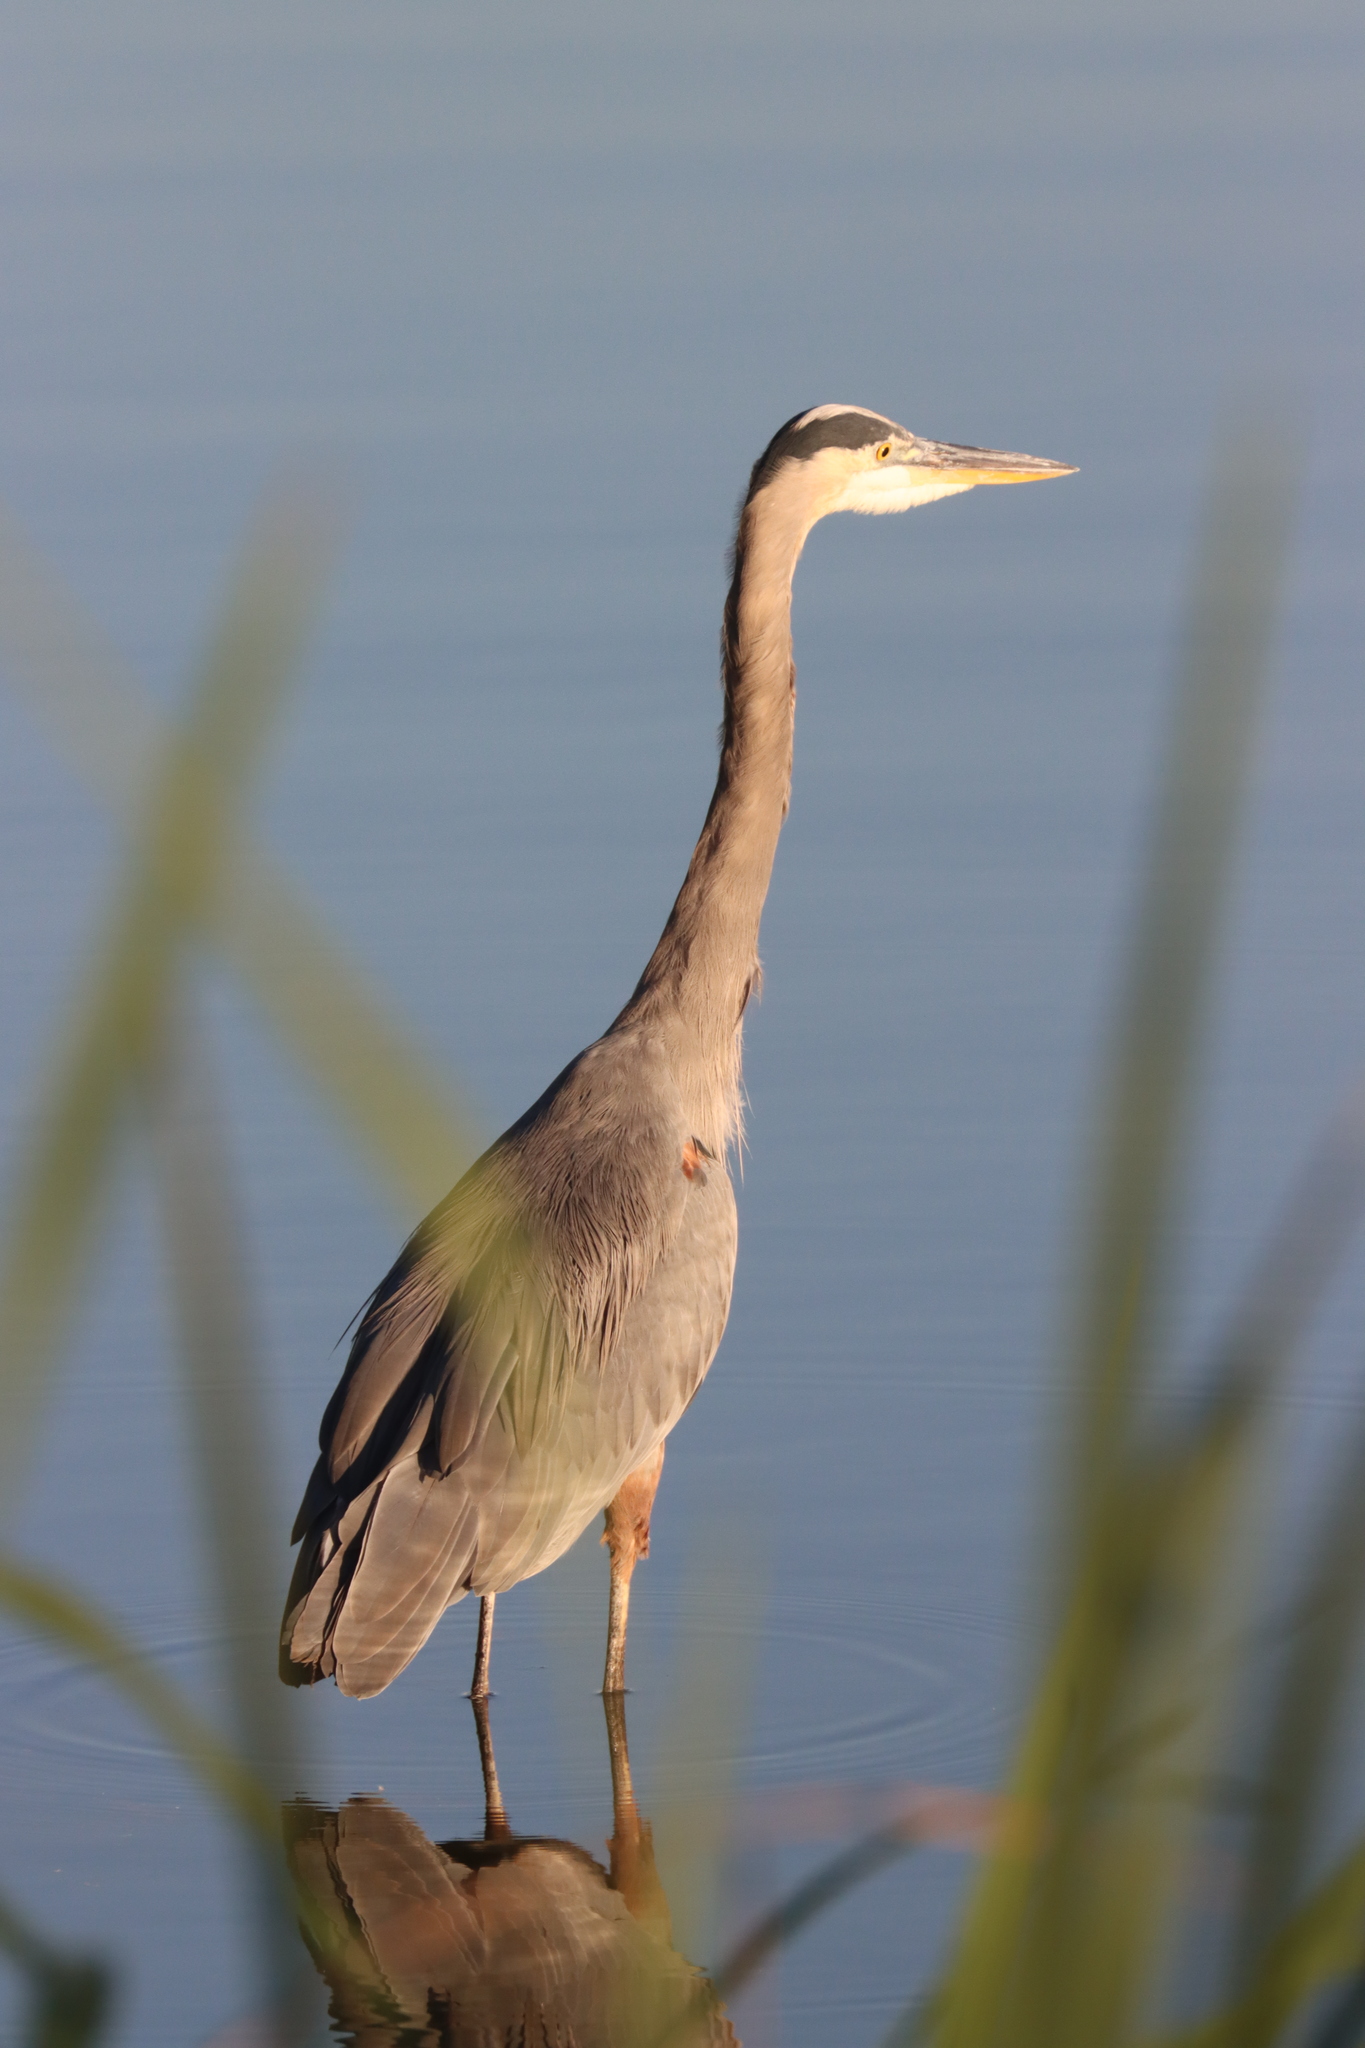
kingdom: Animalia
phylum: Chordata
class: Aves
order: Pelecaniformes
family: Ardeidae
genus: Ardea
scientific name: Ardea herodias
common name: Great blue heron
